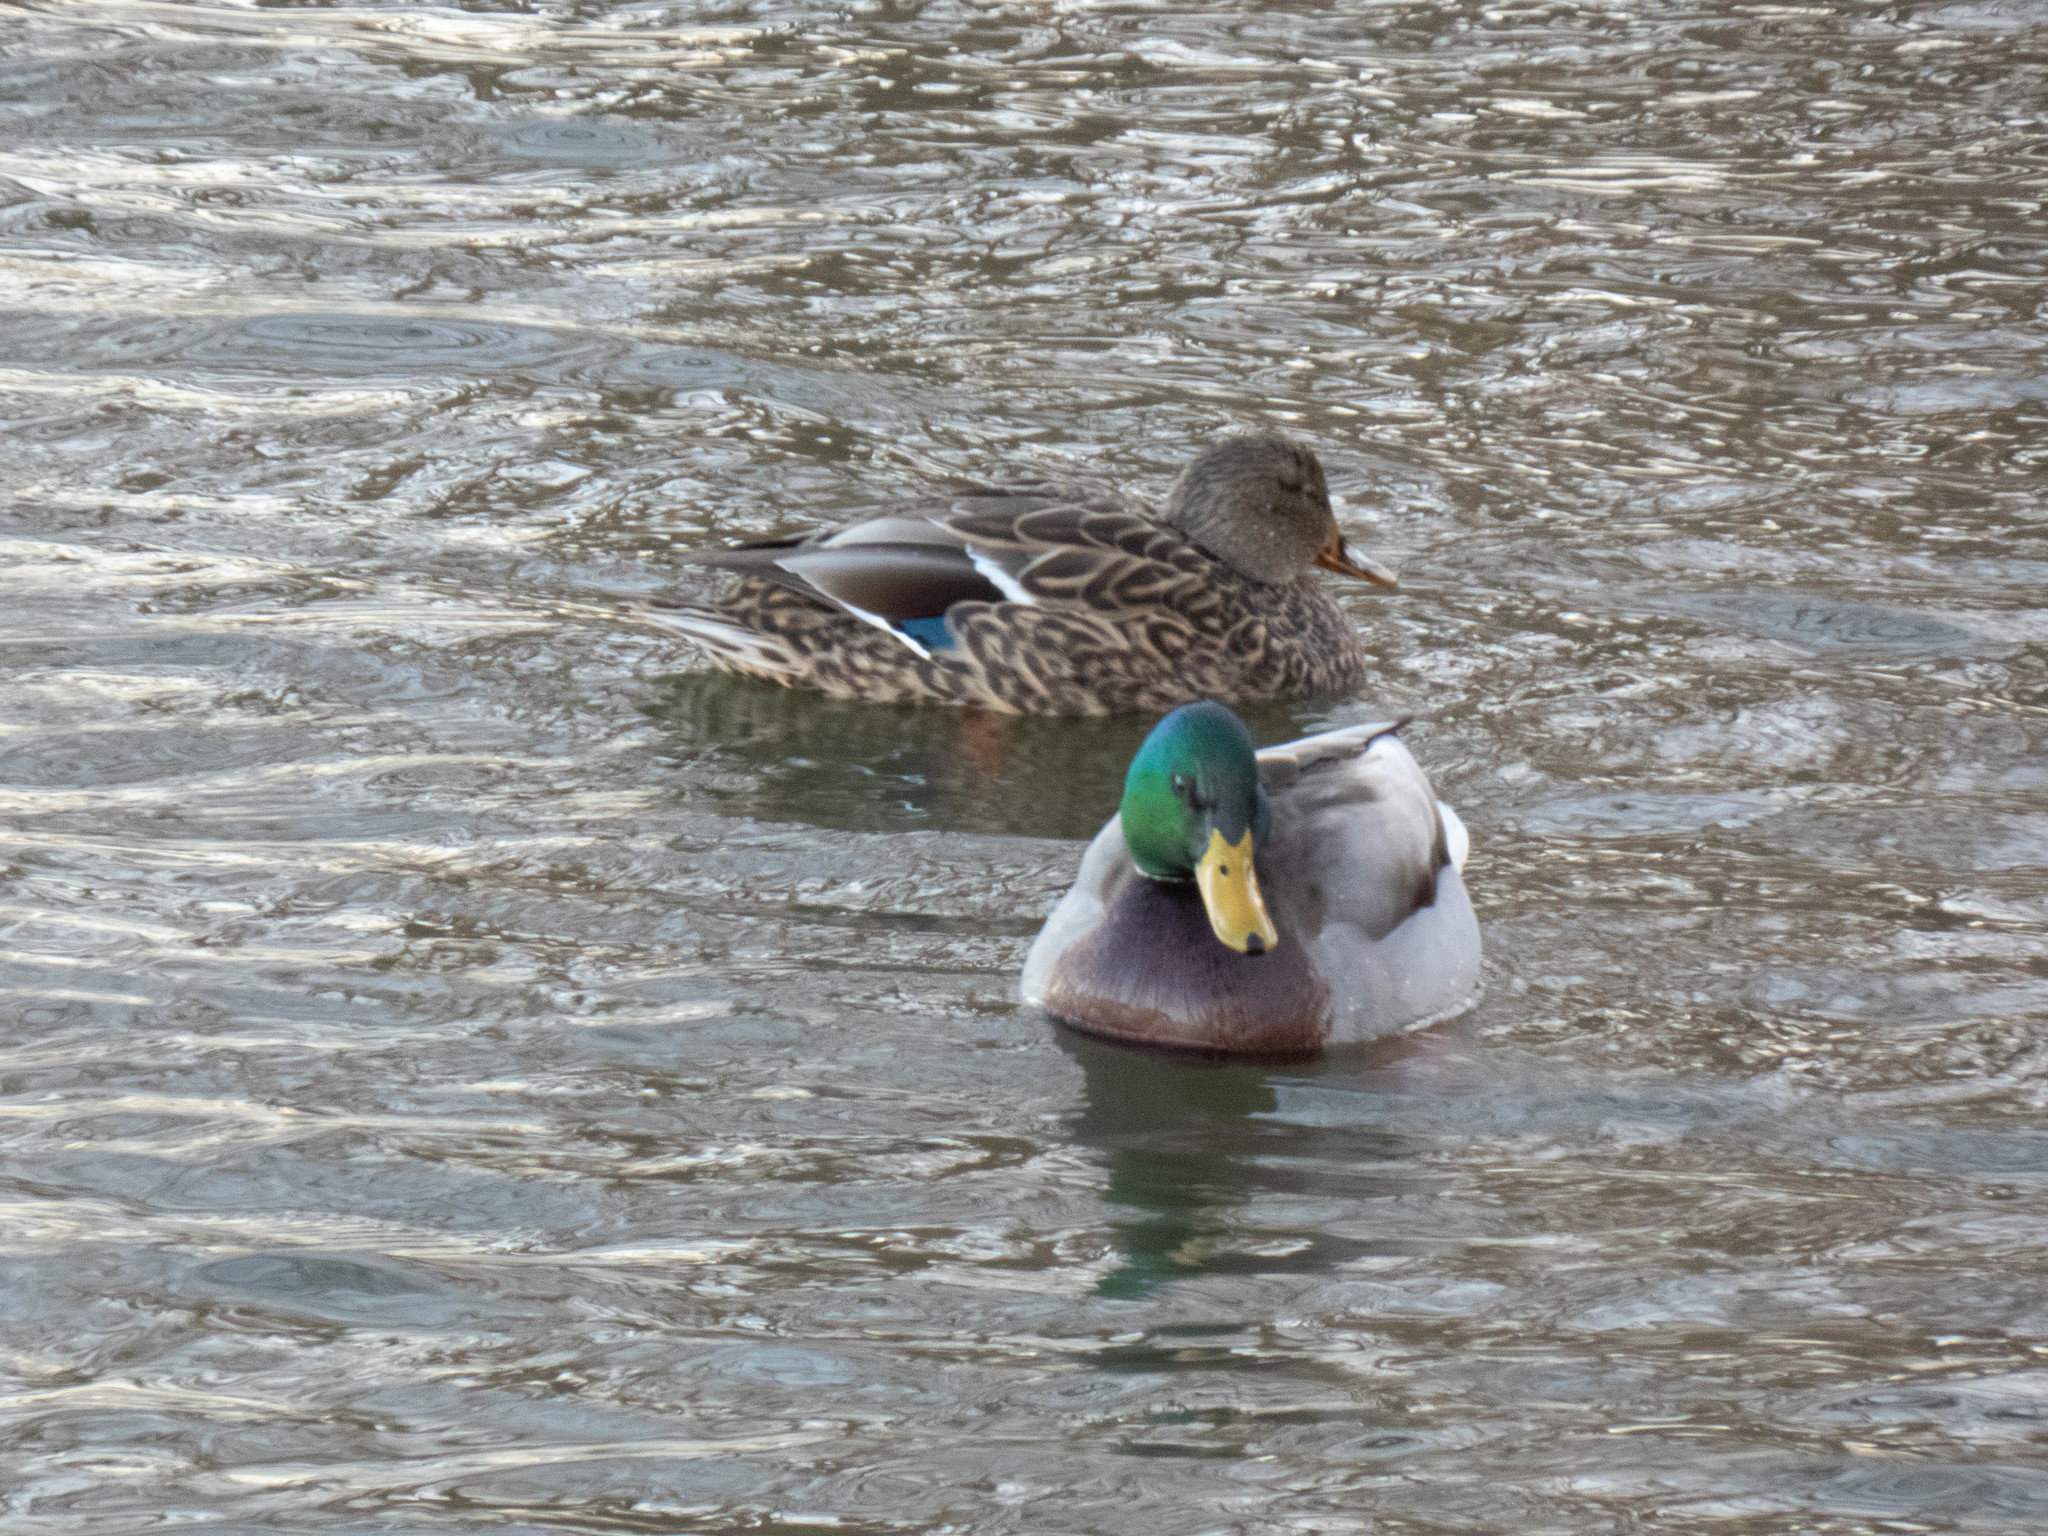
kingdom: Animalia
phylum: Chordata
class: Aves
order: Anseriformes
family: Anatidae
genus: Anas
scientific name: Anas platyrhynchos
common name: Mallard
